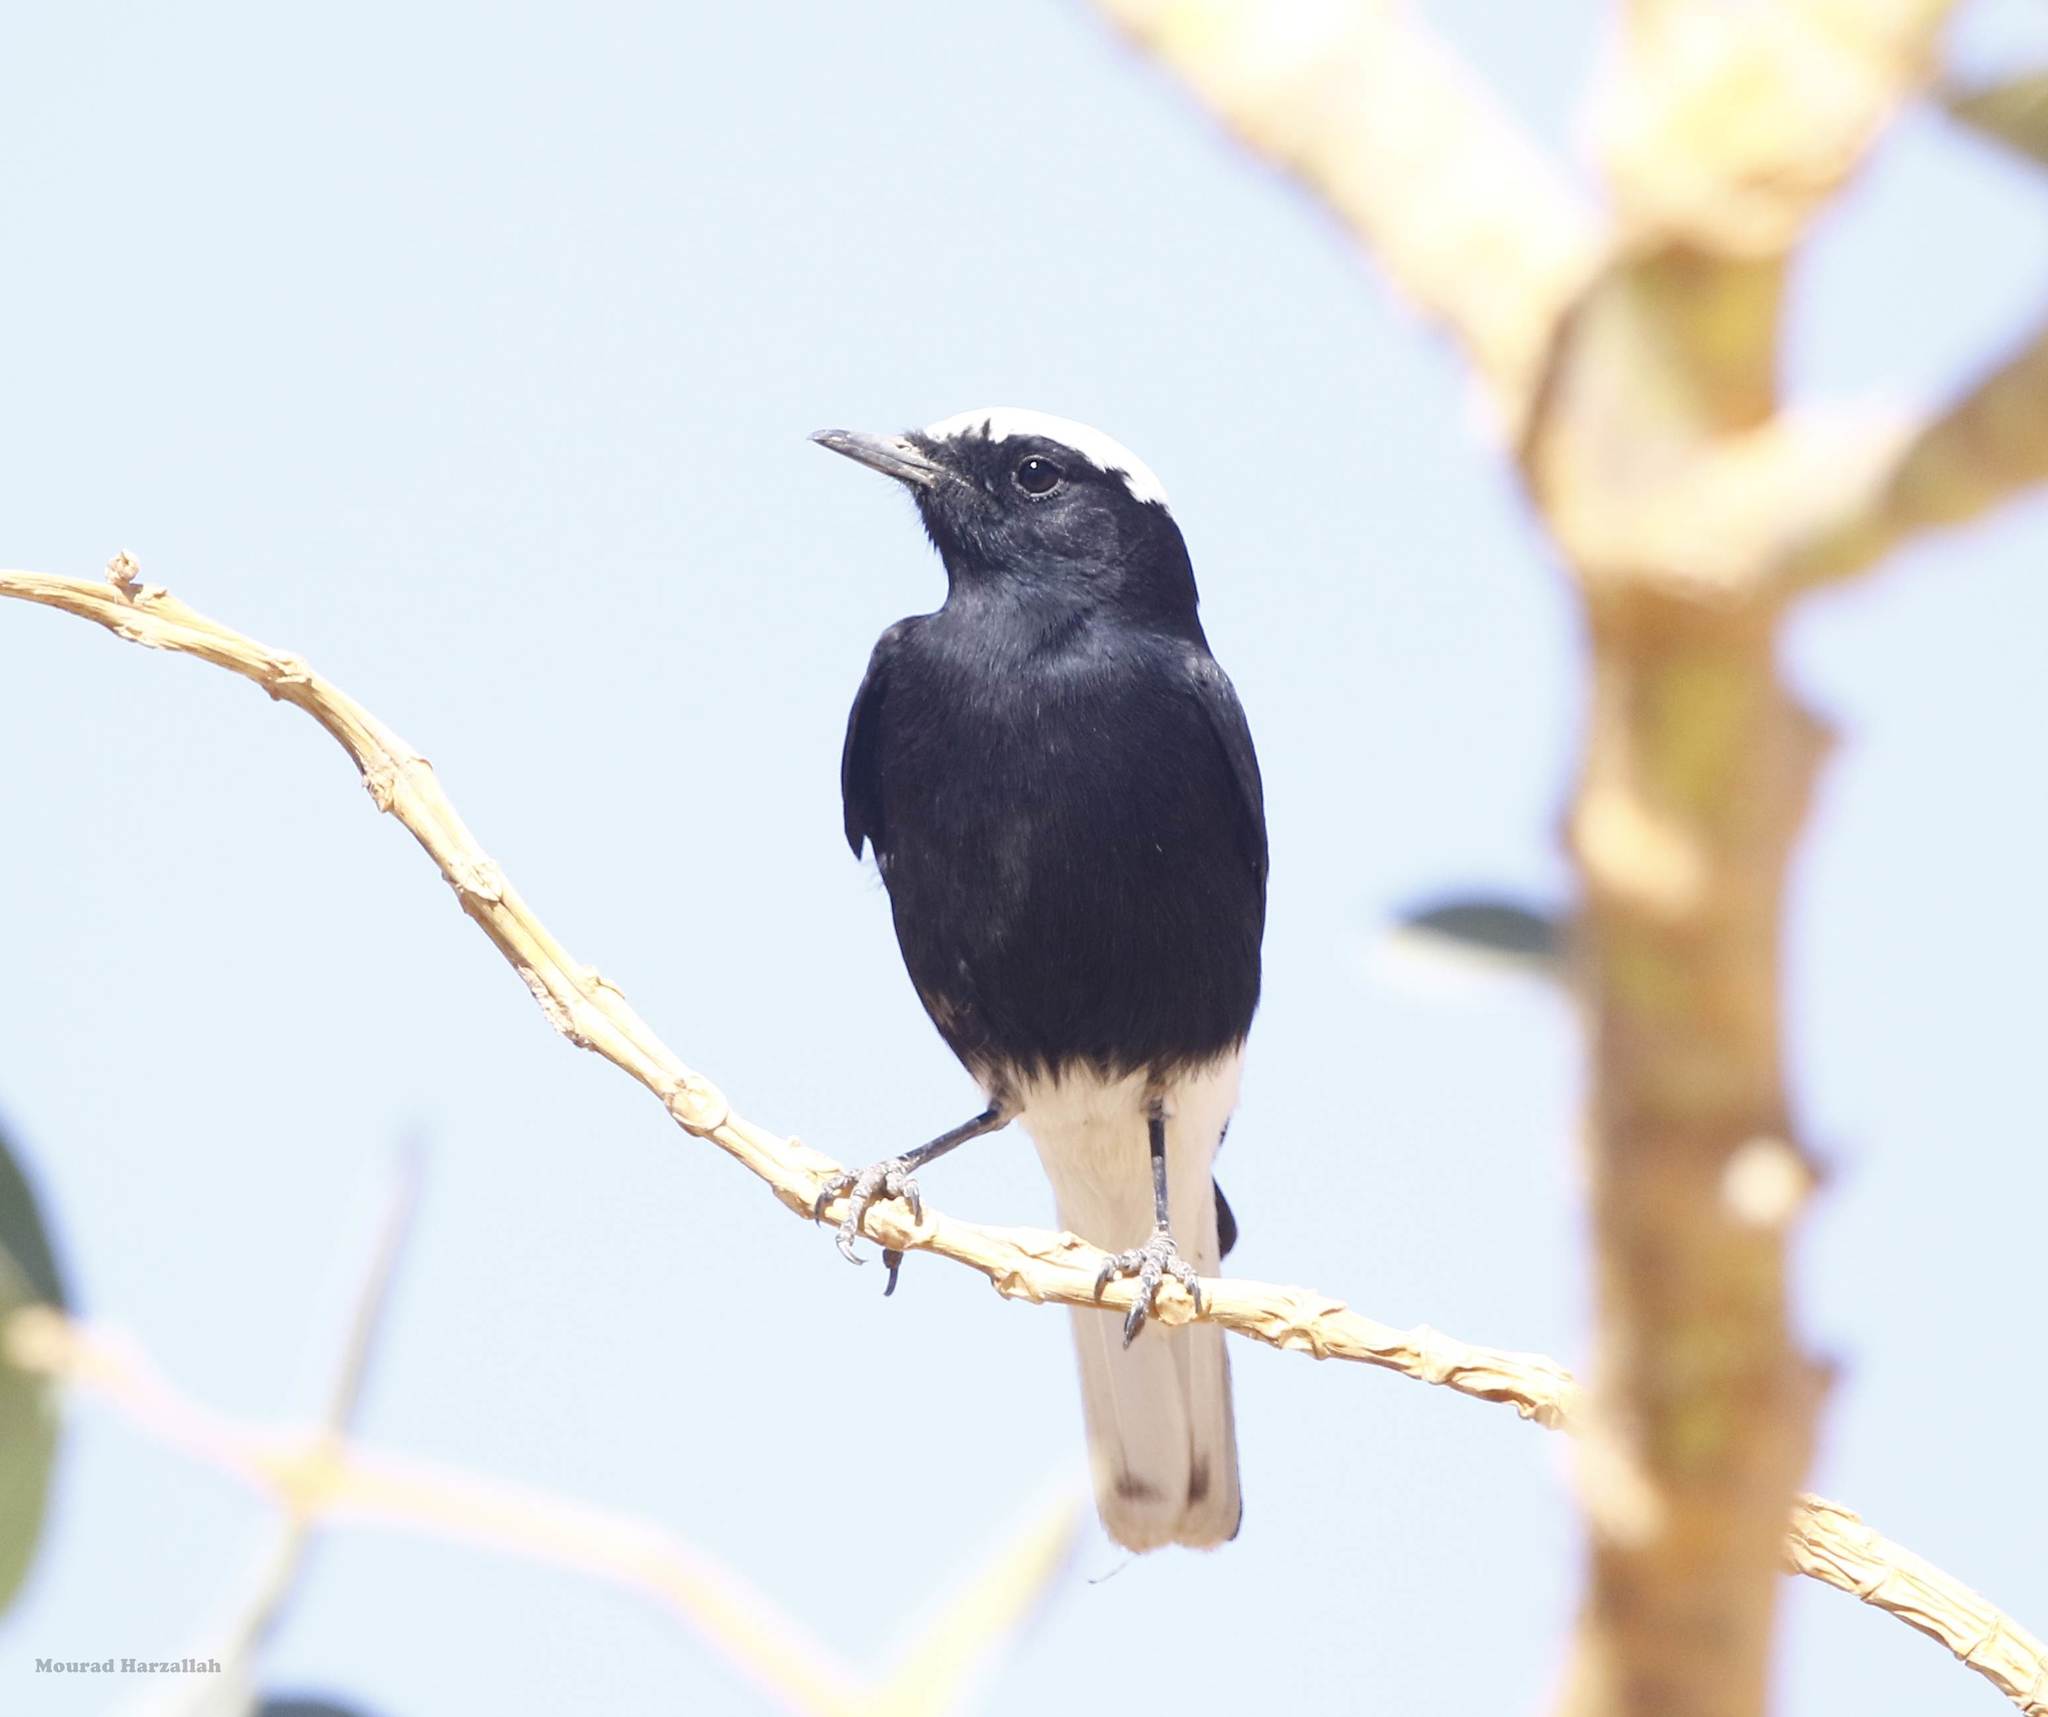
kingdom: Animalia
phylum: Chordata
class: Aves
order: Passeriformes
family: Muscicapidae
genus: Oenanthe
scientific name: Oenanthe leucopyga
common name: White-crowned wheatear
